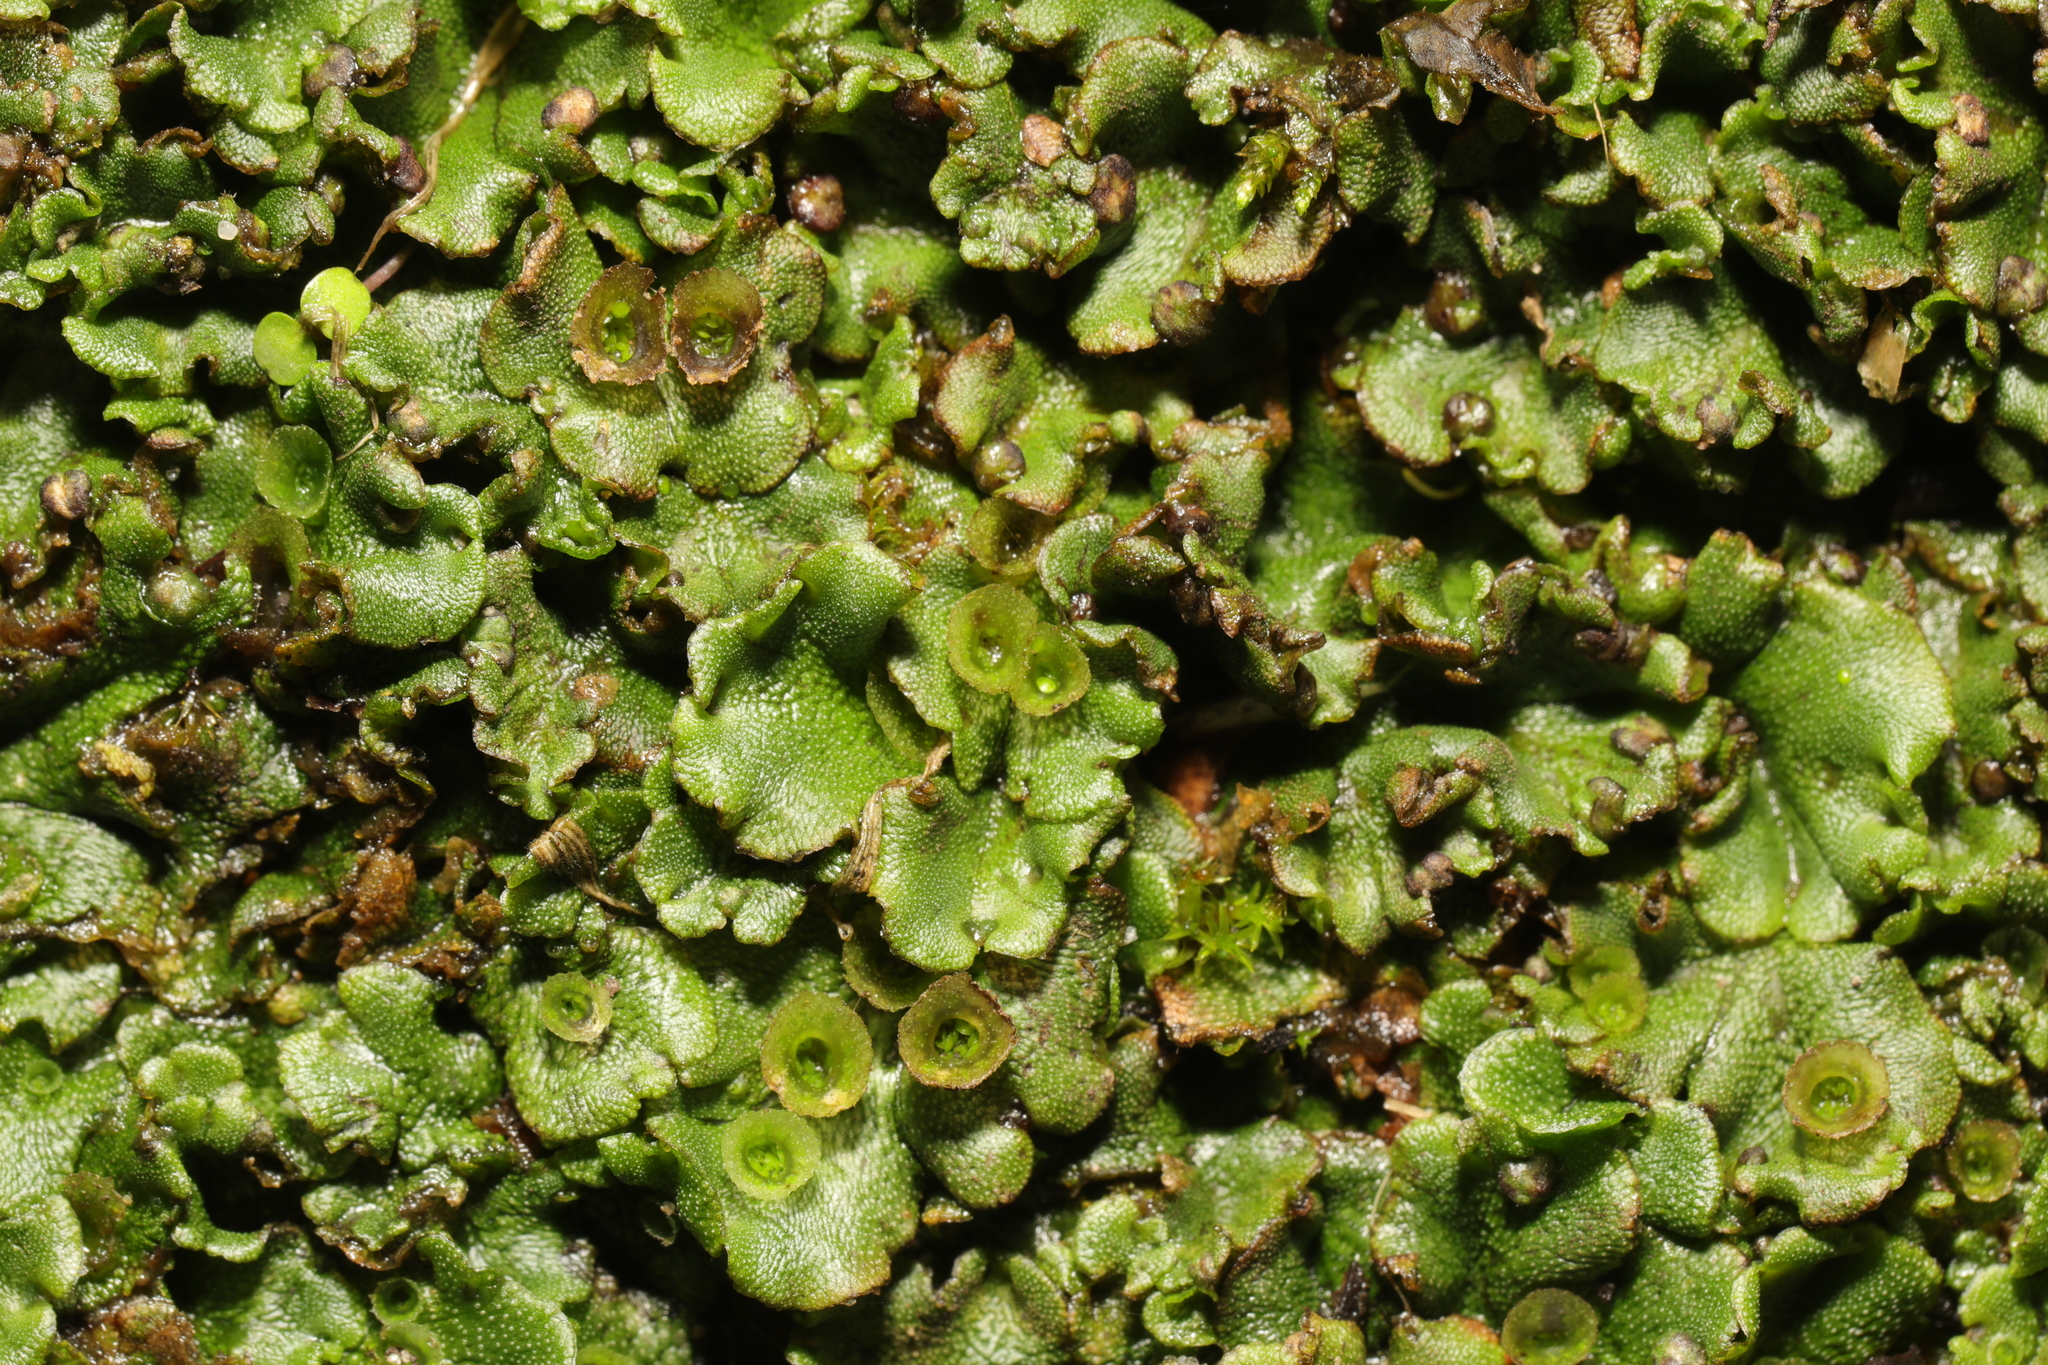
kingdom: Plantae
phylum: Marchantiophyta
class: Marchantiopsida
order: Marchantiales
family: Marchantiaceae
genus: Marchantia
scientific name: Marchantia polymorpha
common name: Common liverwort
